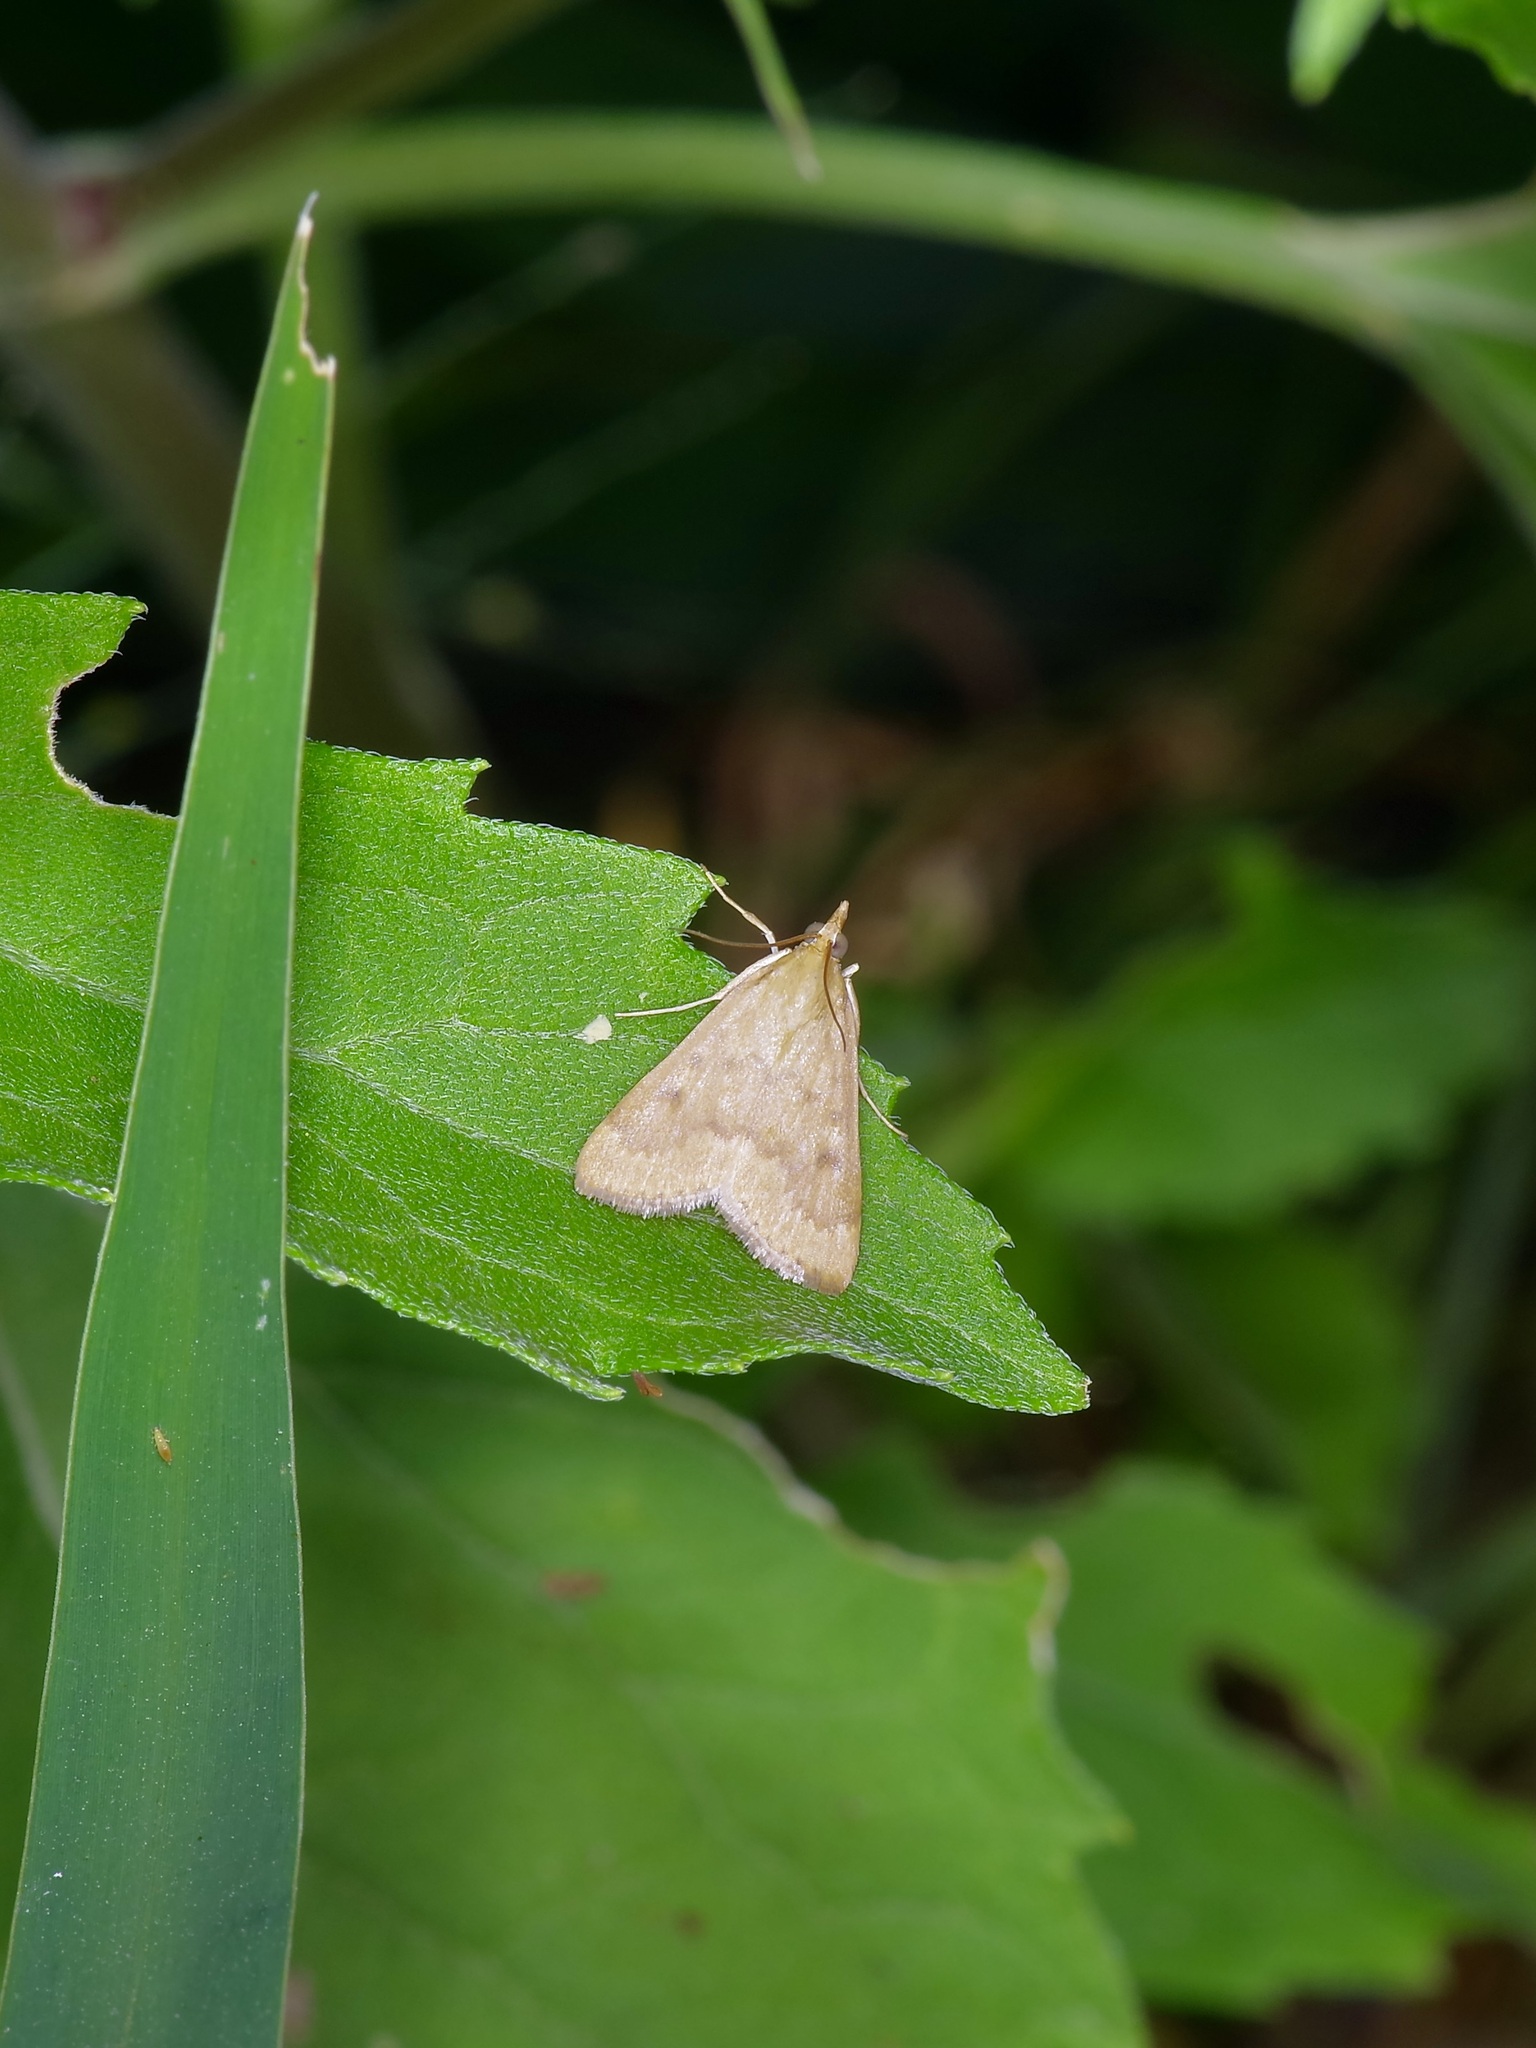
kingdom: Animalia
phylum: Arthropoda
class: Insecta
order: Lepidoptera
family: Crambidae
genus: Achyra
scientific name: Achyra rantalis
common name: Garden webworm
